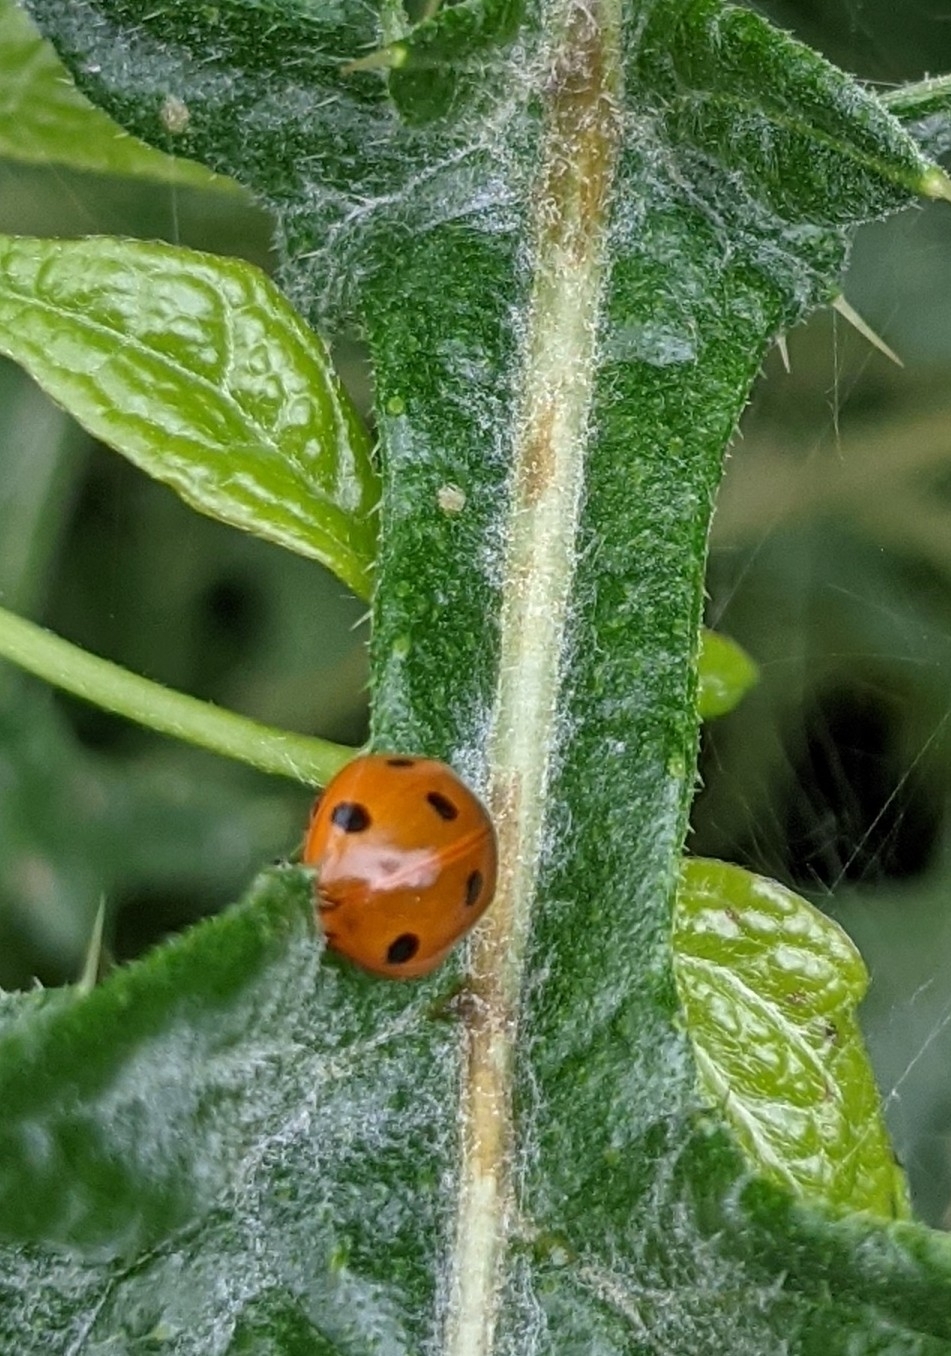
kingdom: Animalia
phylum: Arthropoda
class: Insecta
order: Coleoptera
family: Coccinellidae
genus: Coccinella
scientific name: Coccinella septempunctata
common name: Sevenspotted lady beetle
